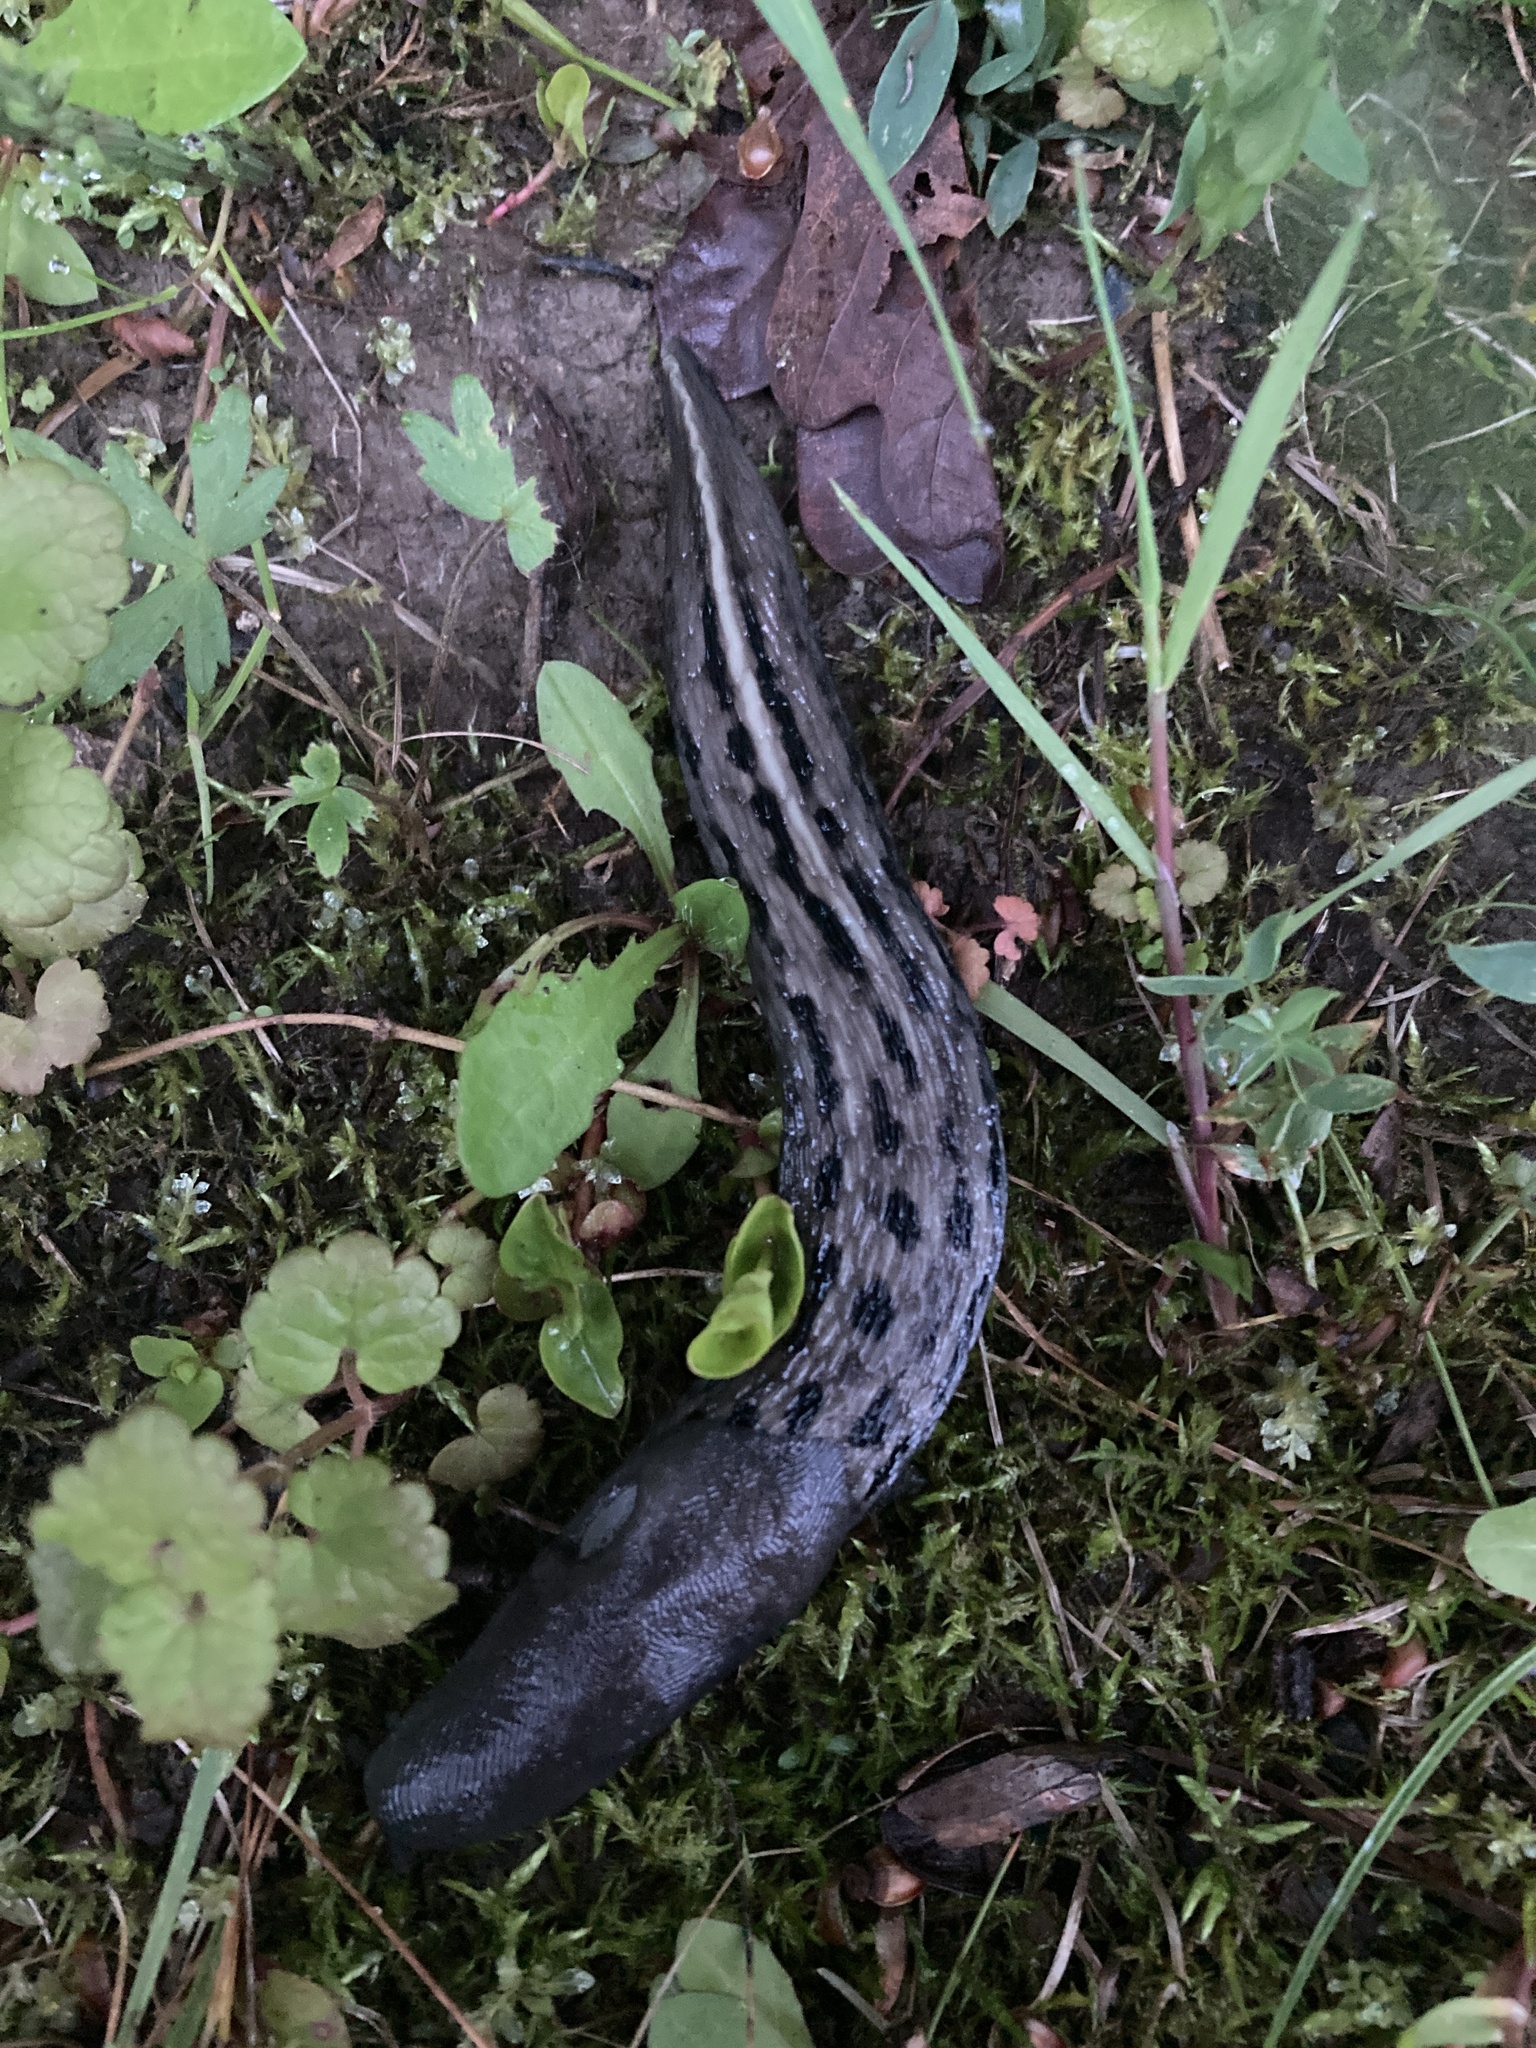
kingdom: Animalia
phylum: Mollusca
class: Gastropoda
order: Stylommatophora
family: Limacidae
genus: Limax
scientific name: Limax cinereoniger
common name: Ash-black slug
